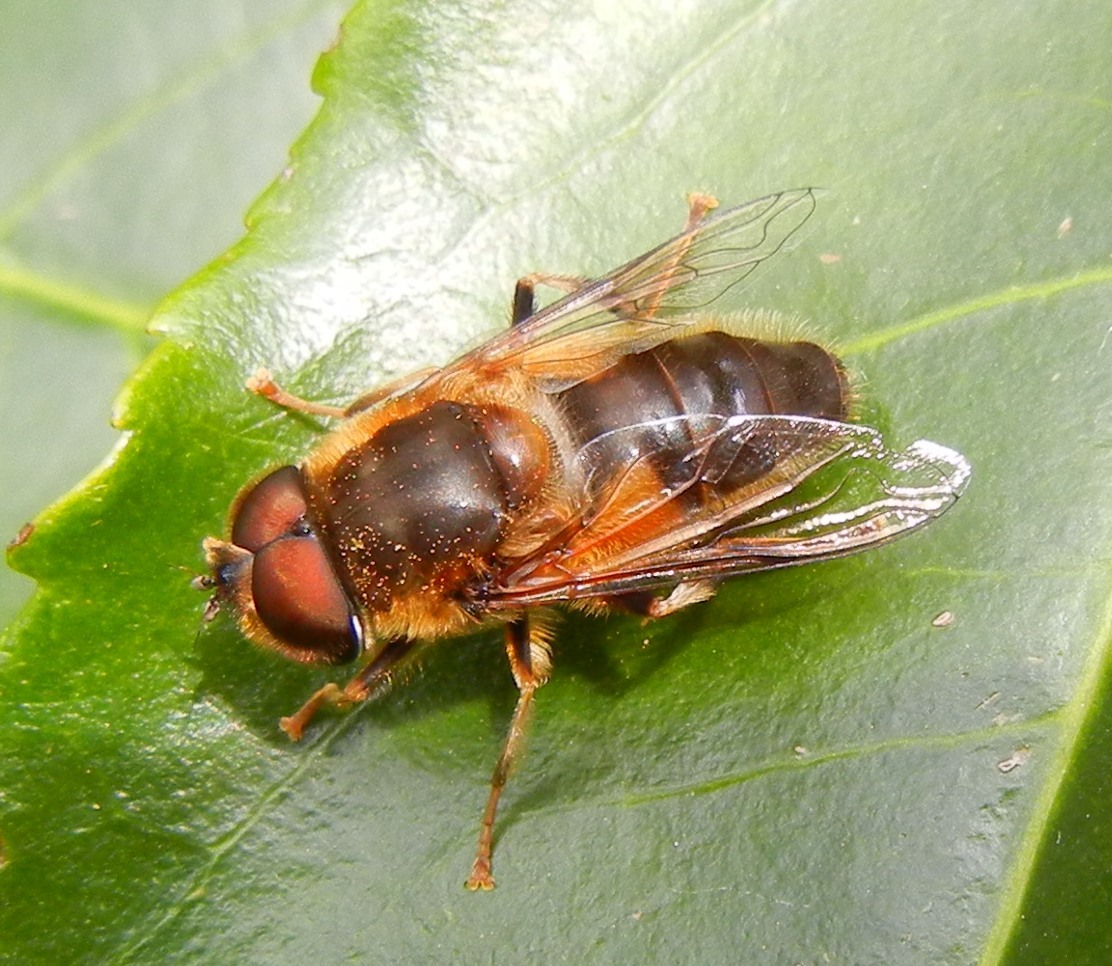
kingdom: Animalia
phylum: Arthropoda
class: Insecta
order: Diptera
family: Syrphidae
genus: Eristalis
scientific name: Eristalis pertinax
